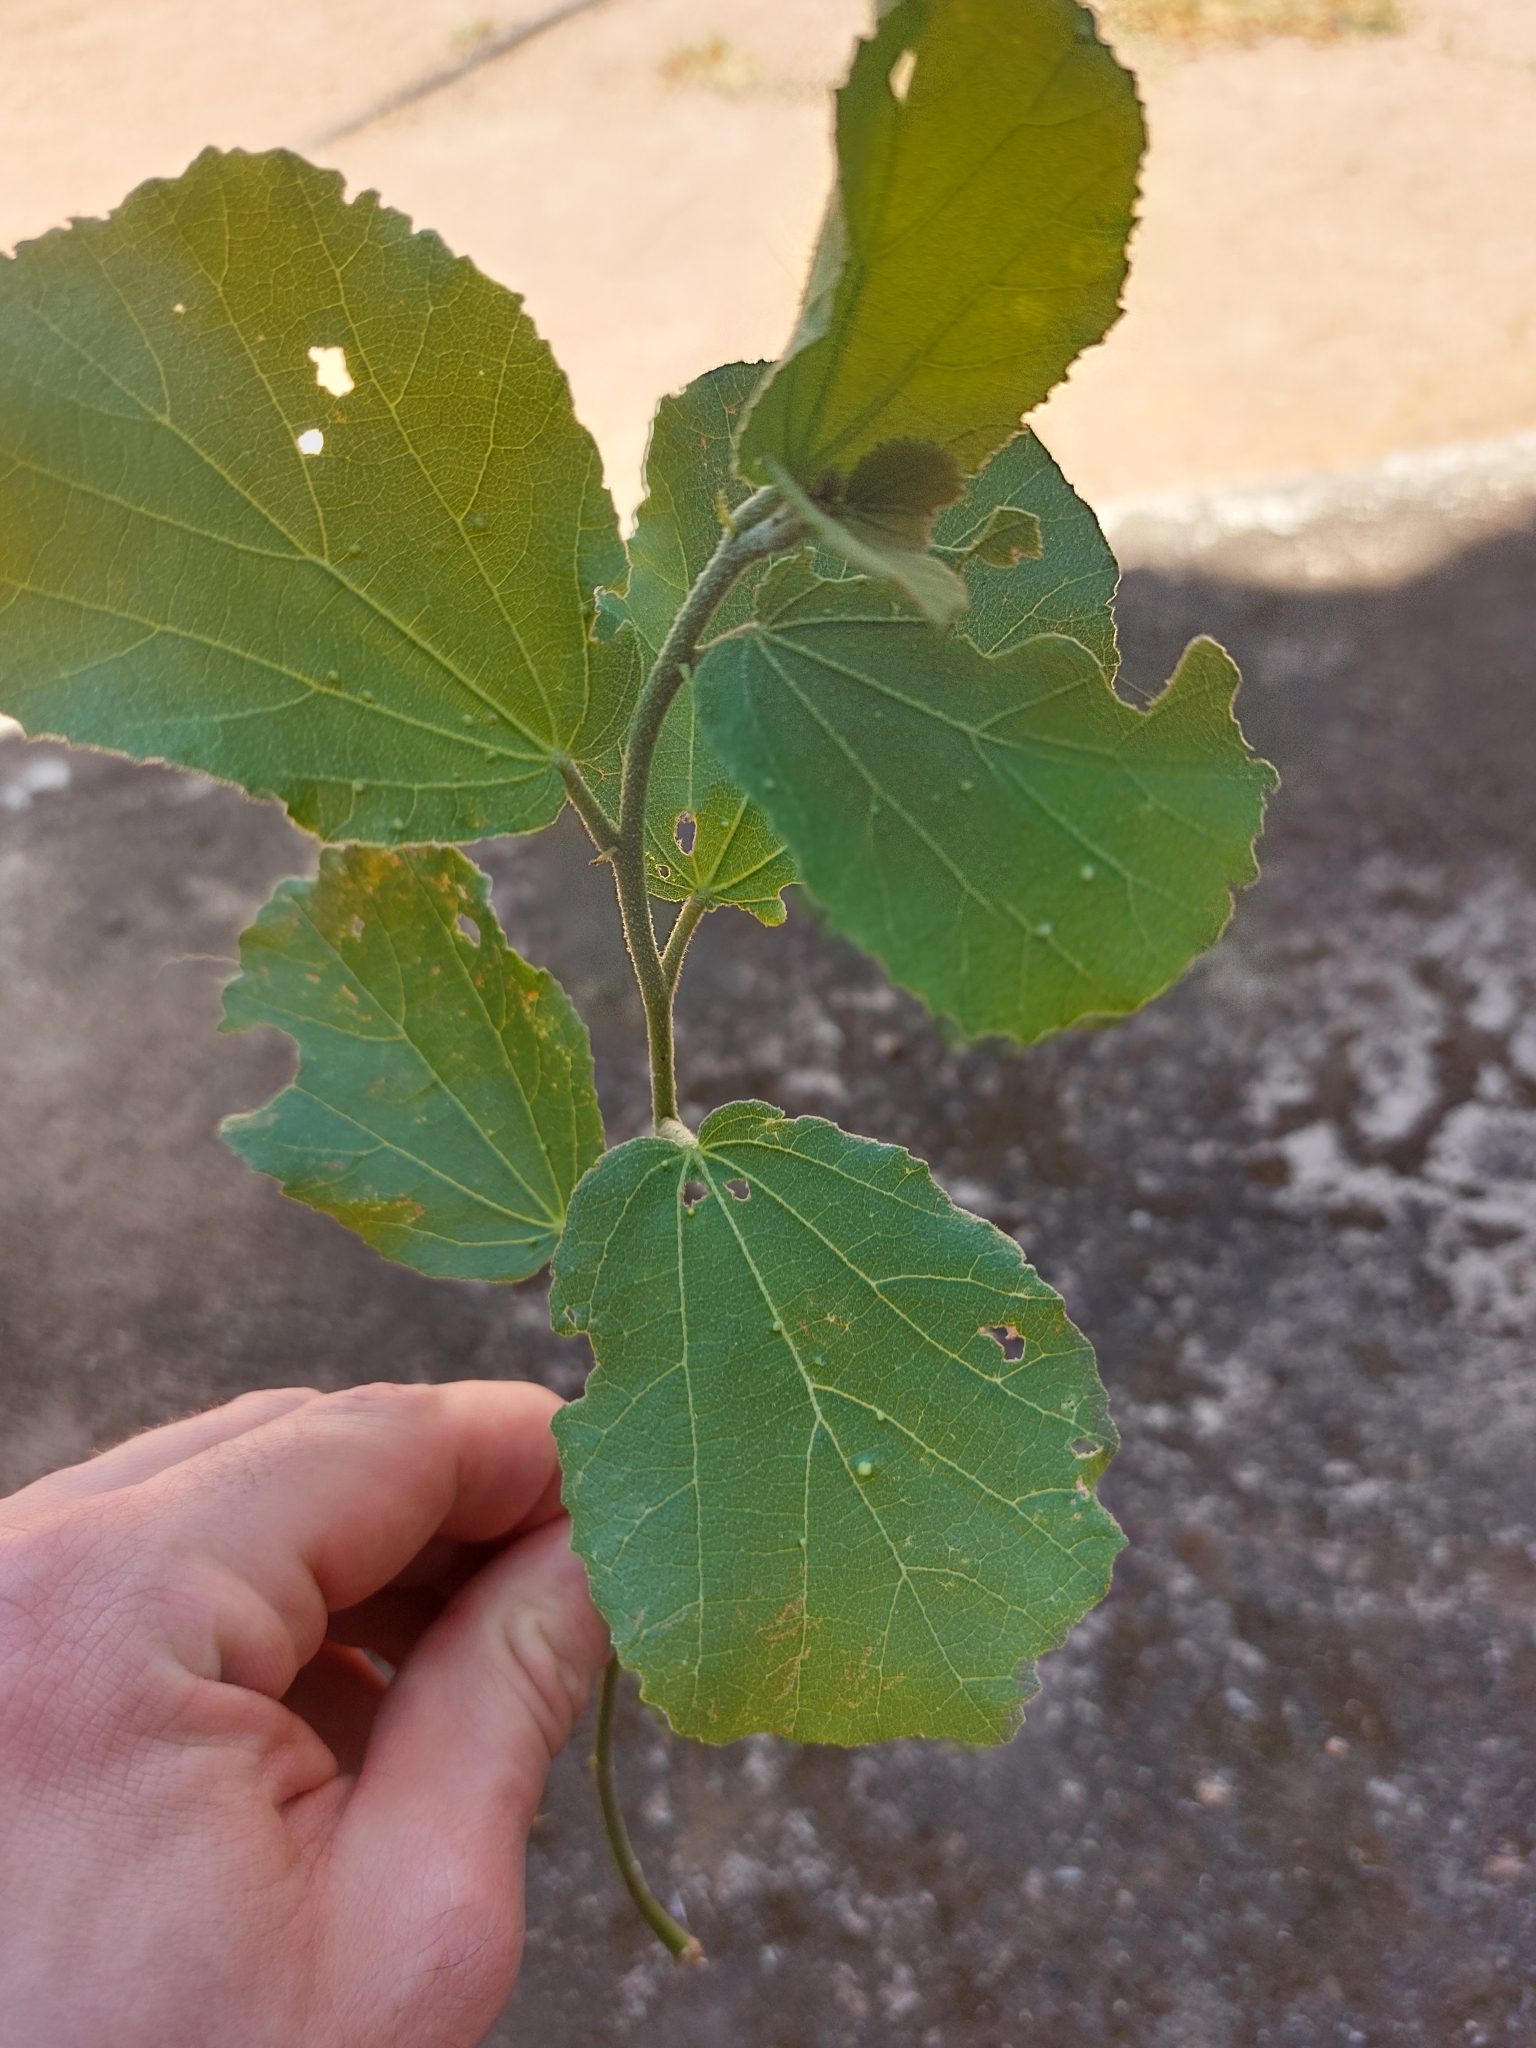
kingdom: Plantae
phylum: Tracheophyta
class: Magnoliopsida
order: Malvales
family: Malvaceae
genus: Dombeya
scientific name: Dombeya rotundifolia
